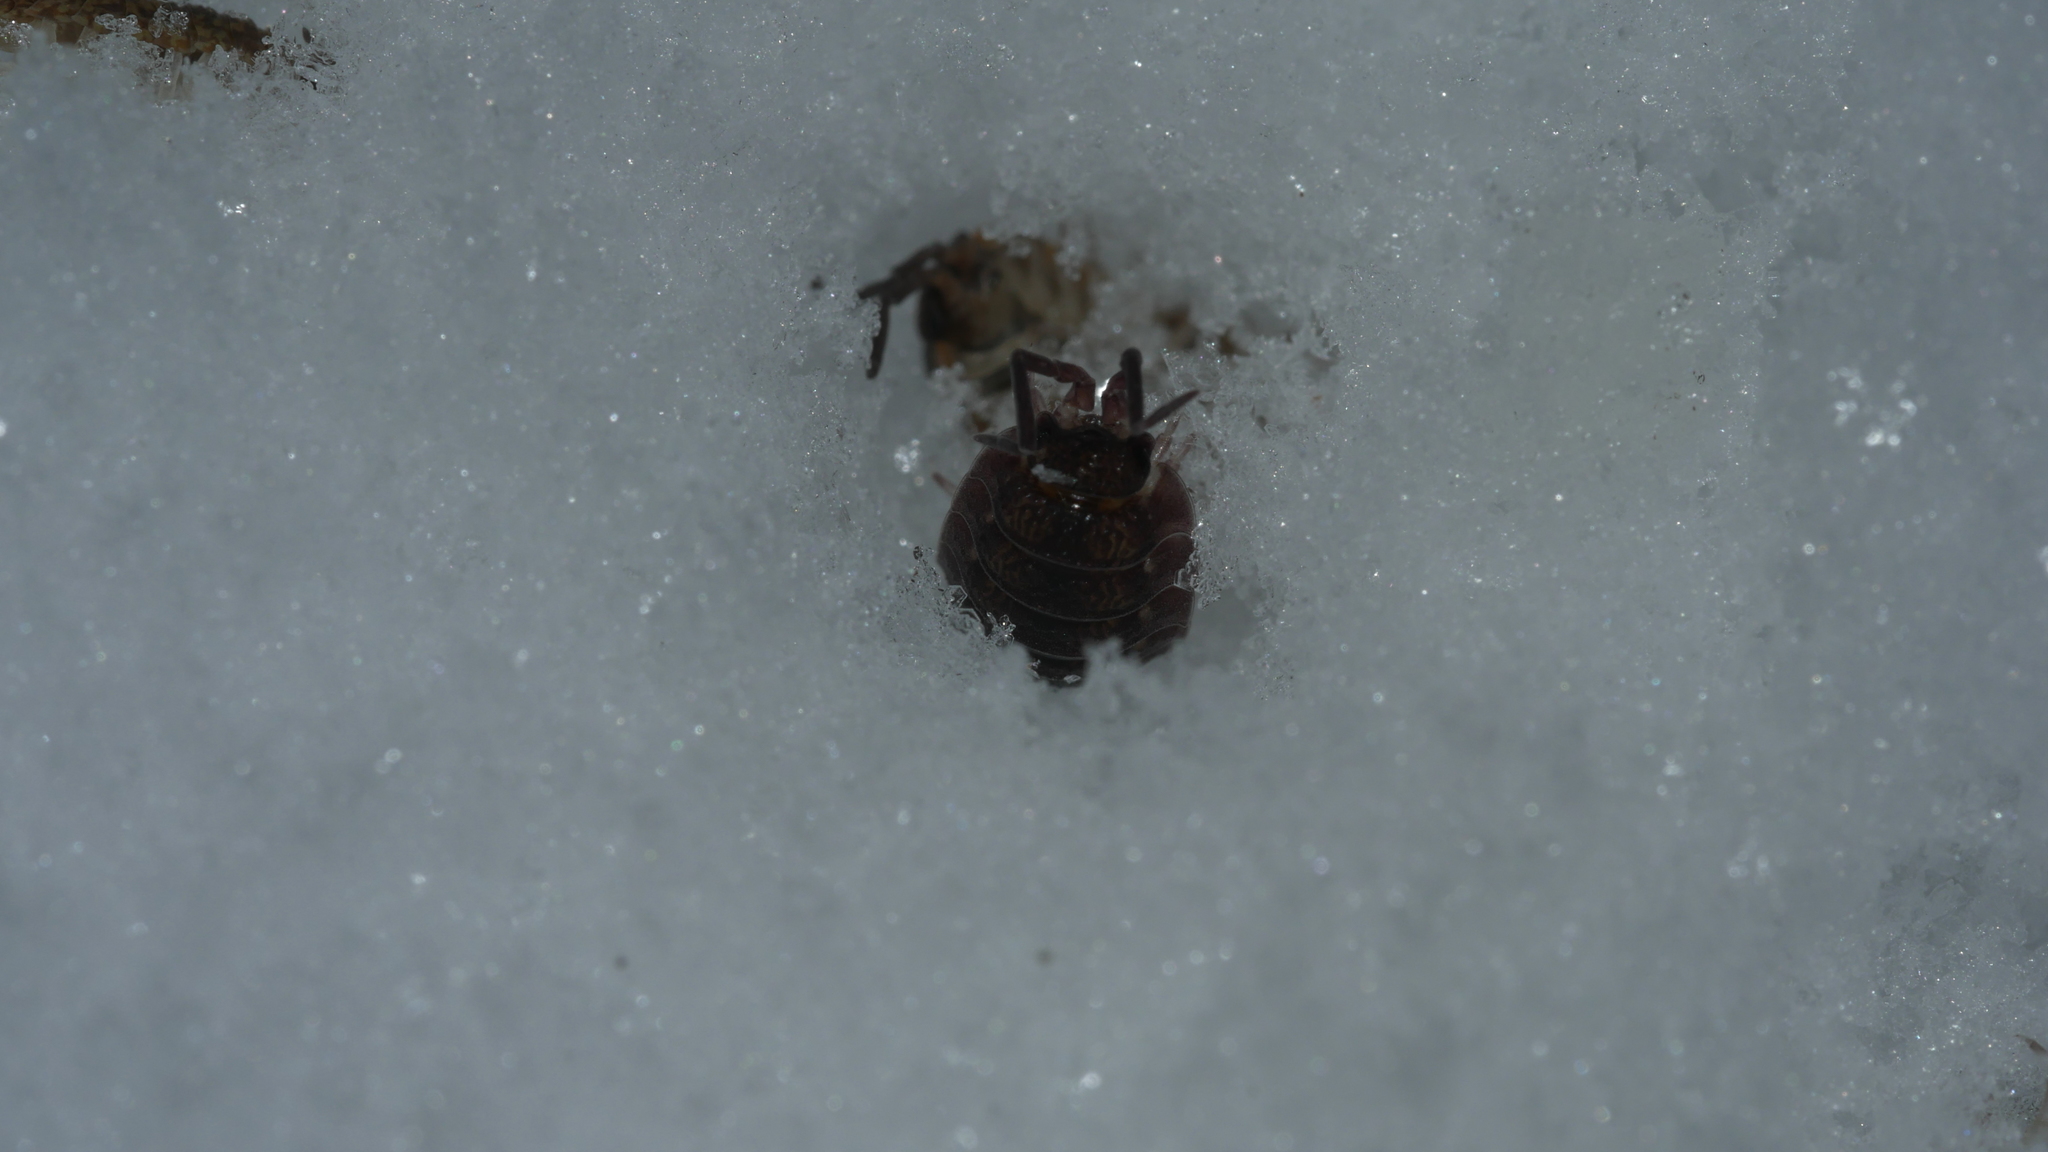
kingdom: Animalia
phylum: Arthropoda
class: Malacostraca
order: Isopoda
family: Porcellionidae
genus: Porcellio
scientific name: Porcellio scaber
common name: Common rough woodlouse
